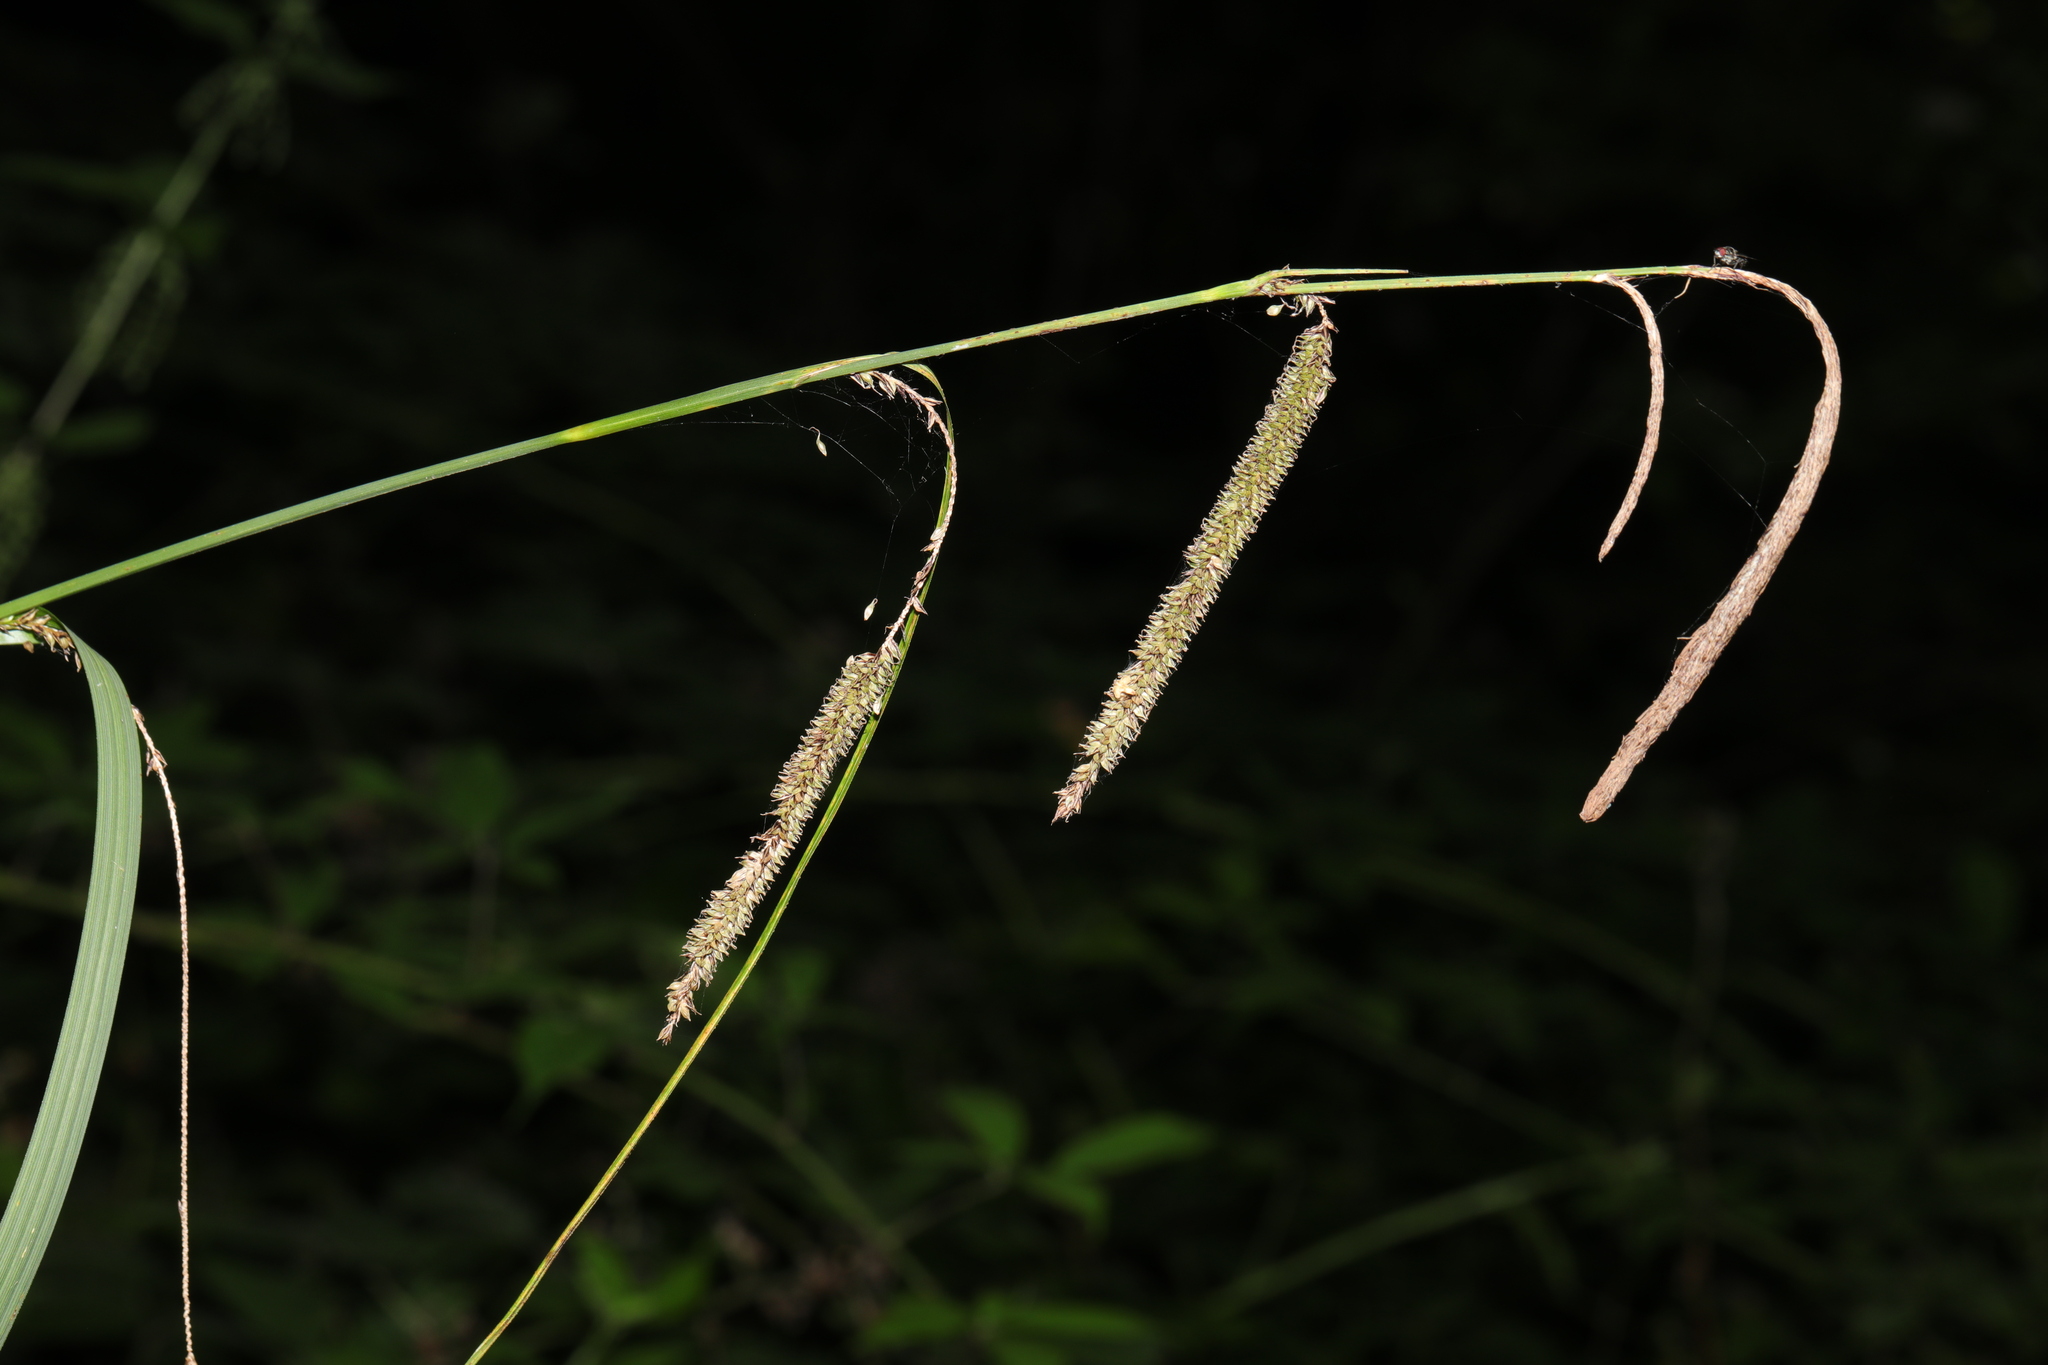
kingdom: Plantae
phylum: Tracheophyta
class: Liliopsida
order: Poales
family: Cyperaceae
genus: Carex
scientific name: Carex pendula
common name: Pendulous sedge
